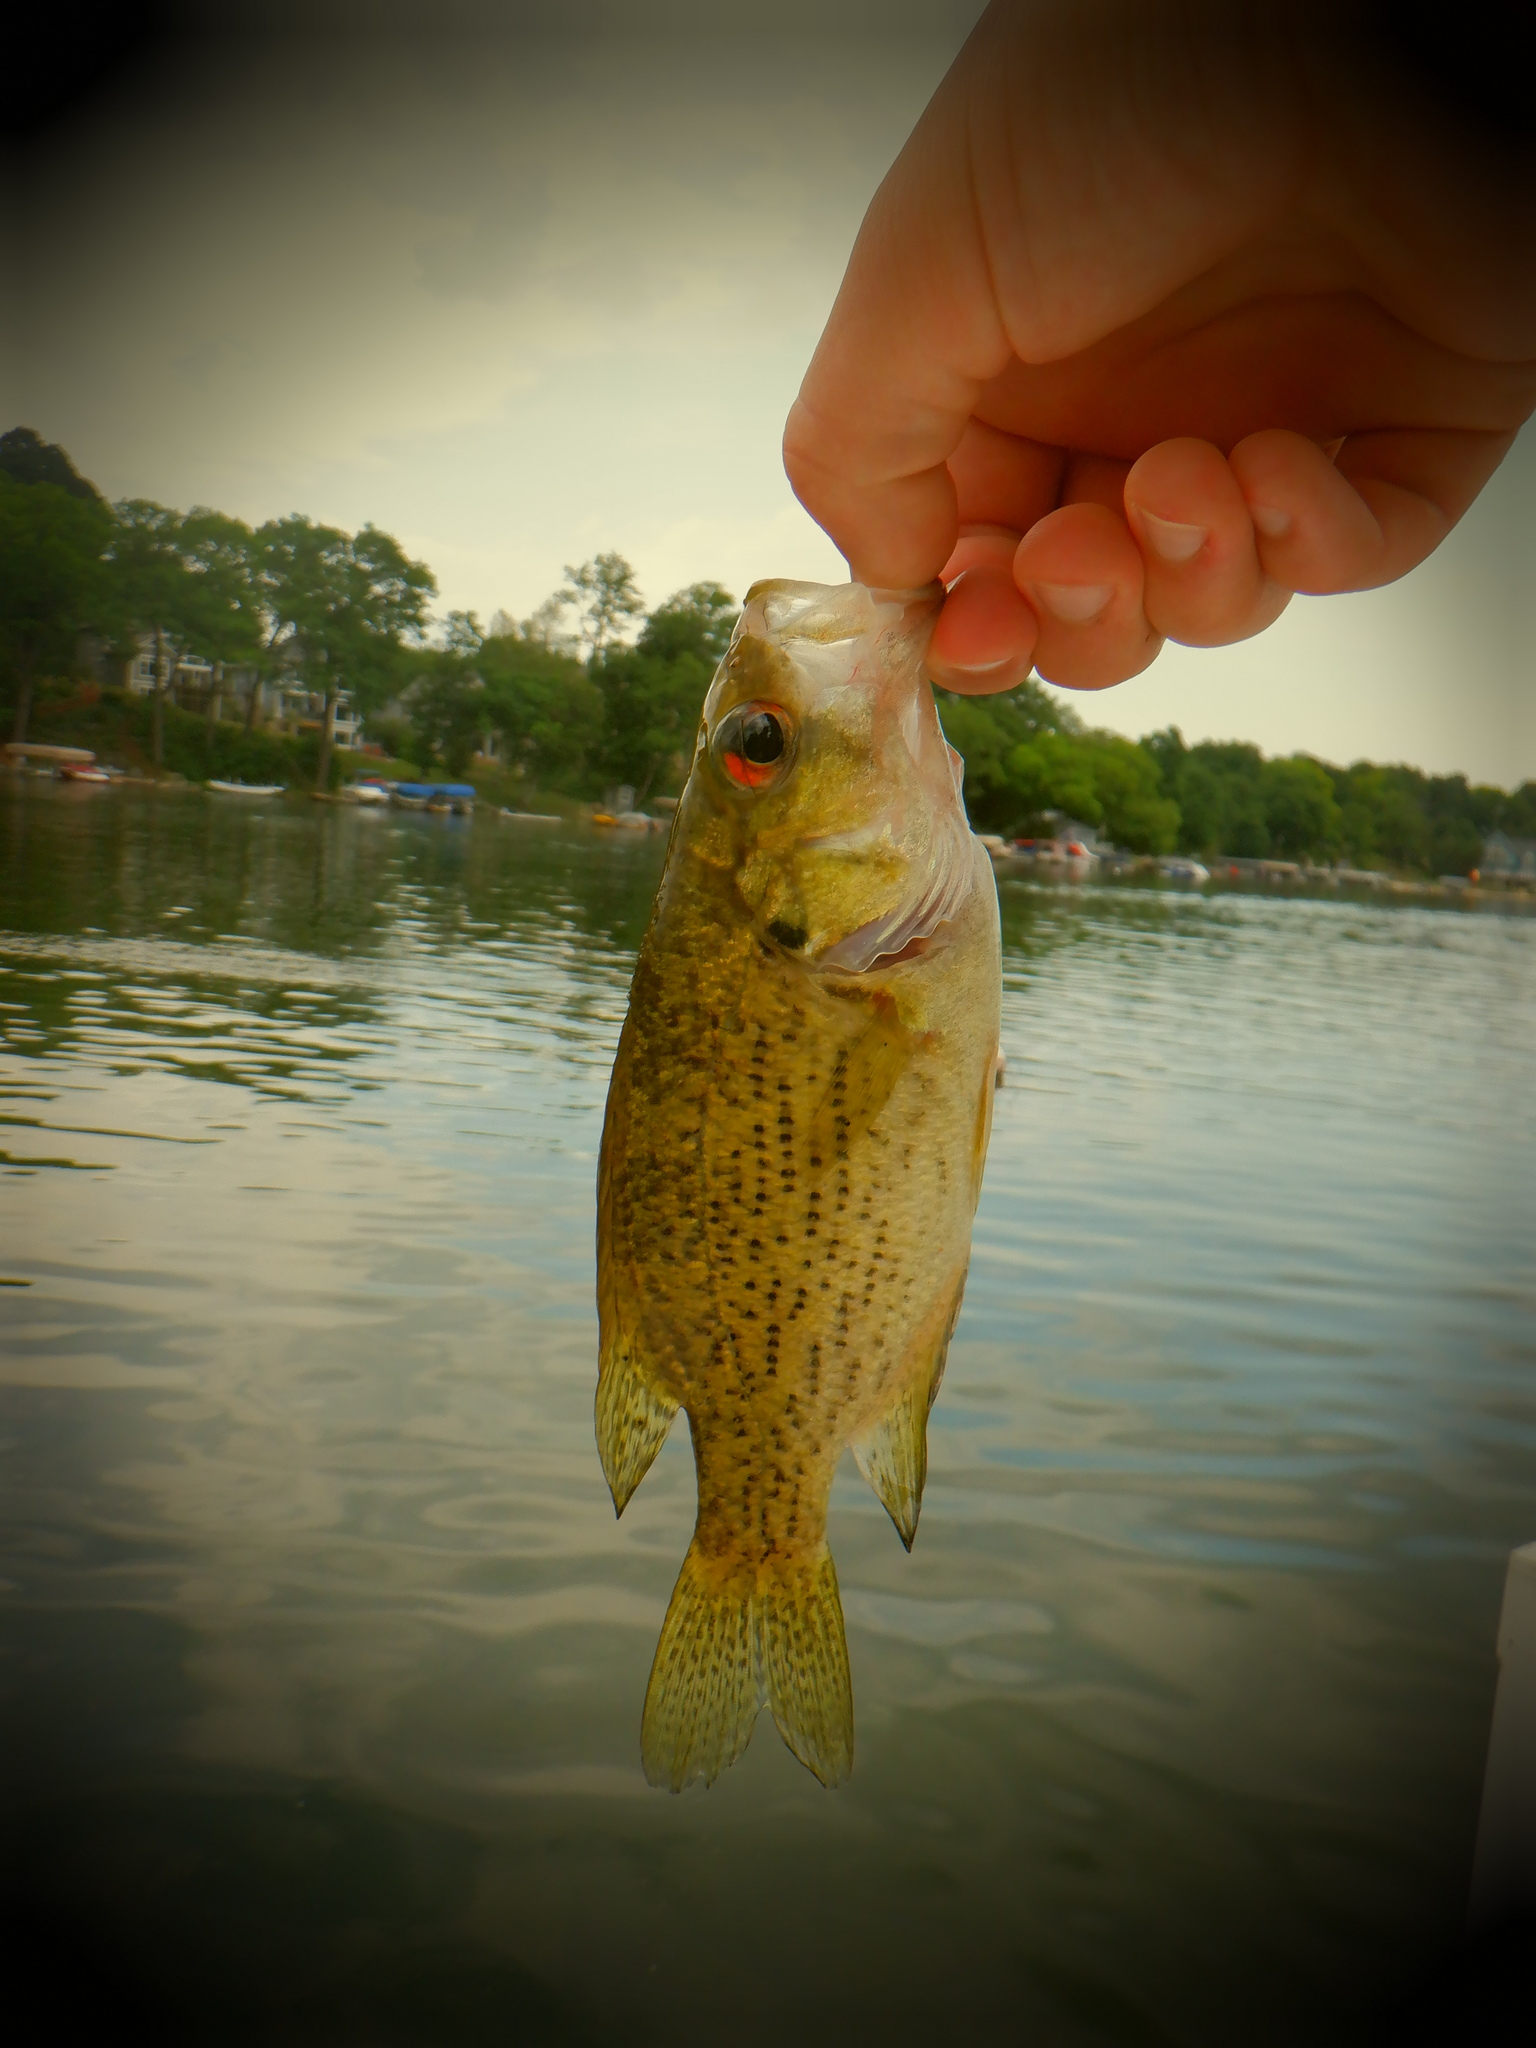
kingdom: Animalia
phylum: Chordata
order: Perciformes
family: Centrarchidae
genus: Ambloplites
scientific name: Ambloplites rupestris
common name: Rock bass
